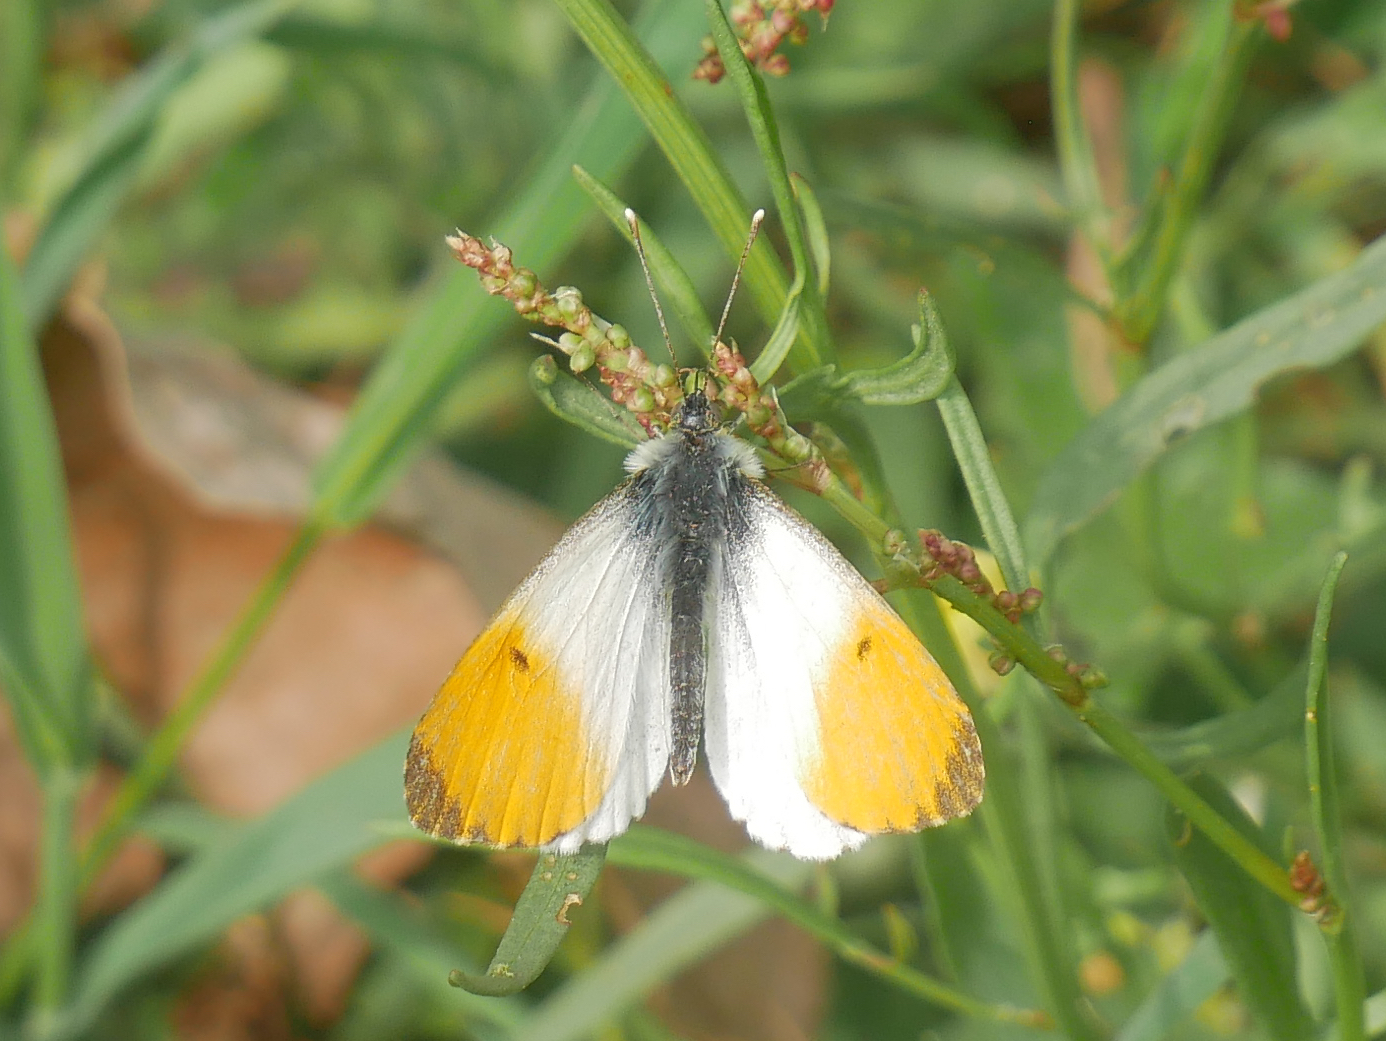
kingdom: Animalia
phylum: Arthropoda
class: Insecta
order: Lepidoptera
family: Pieridae
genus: Anthocharis
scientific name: Anthocharis cardamines
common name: Orange-tip
